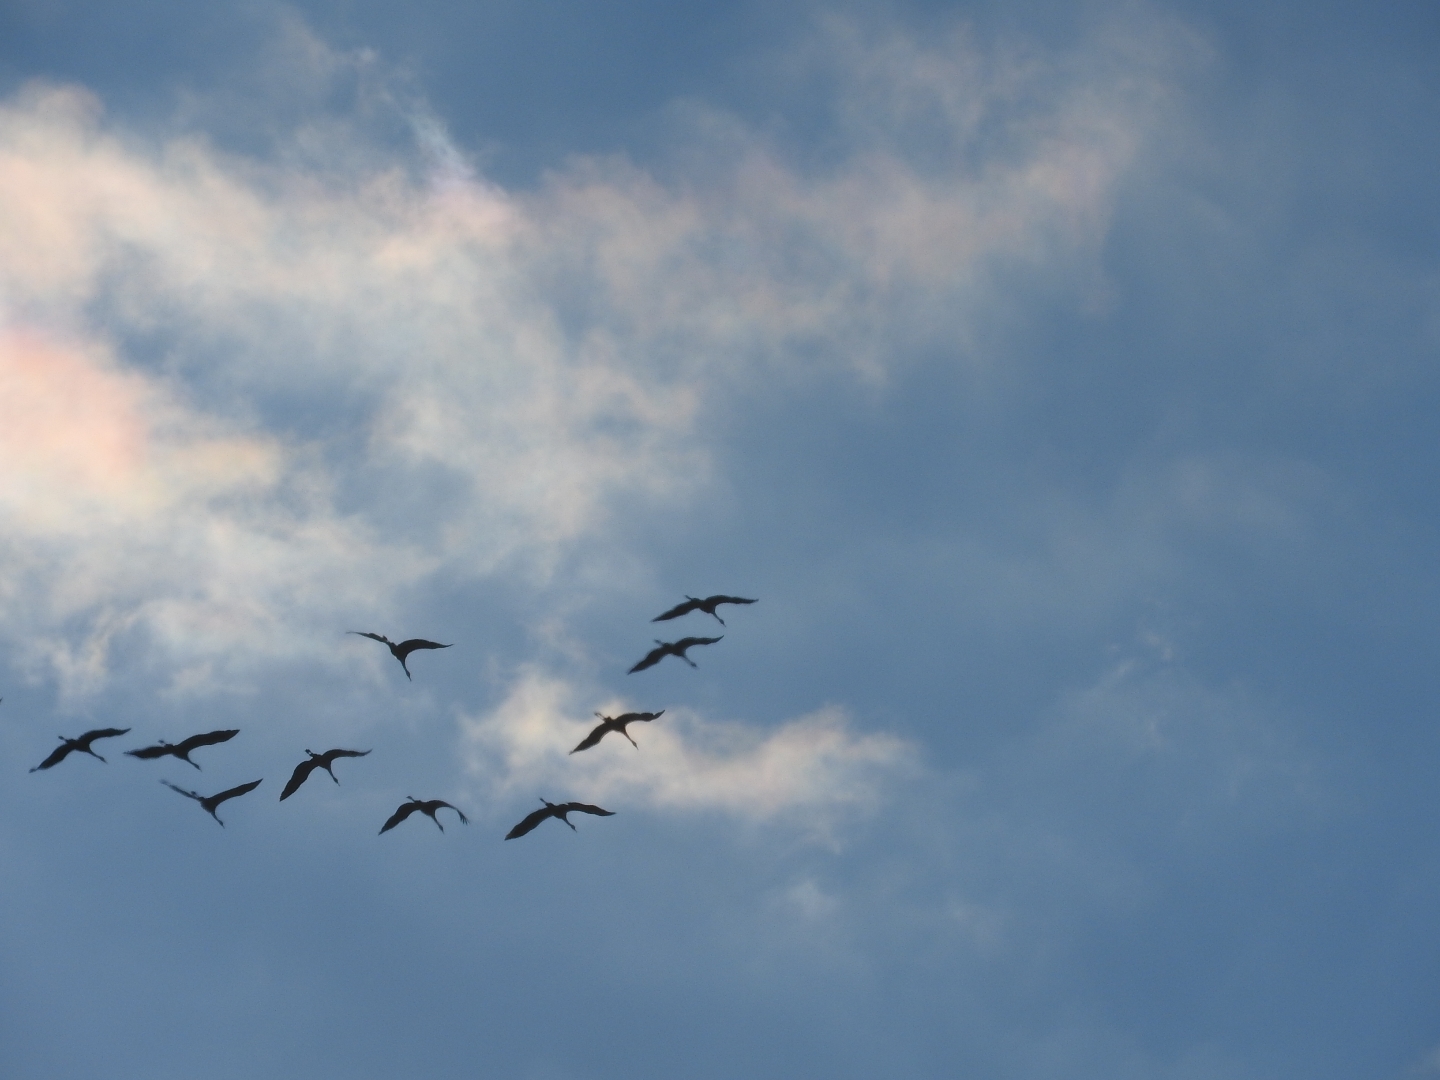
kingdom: Animalia
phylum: Chordata
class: Aves
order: Gruiformes
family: Gruidae
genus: Grus
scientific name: Grus grus
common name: Common crane
